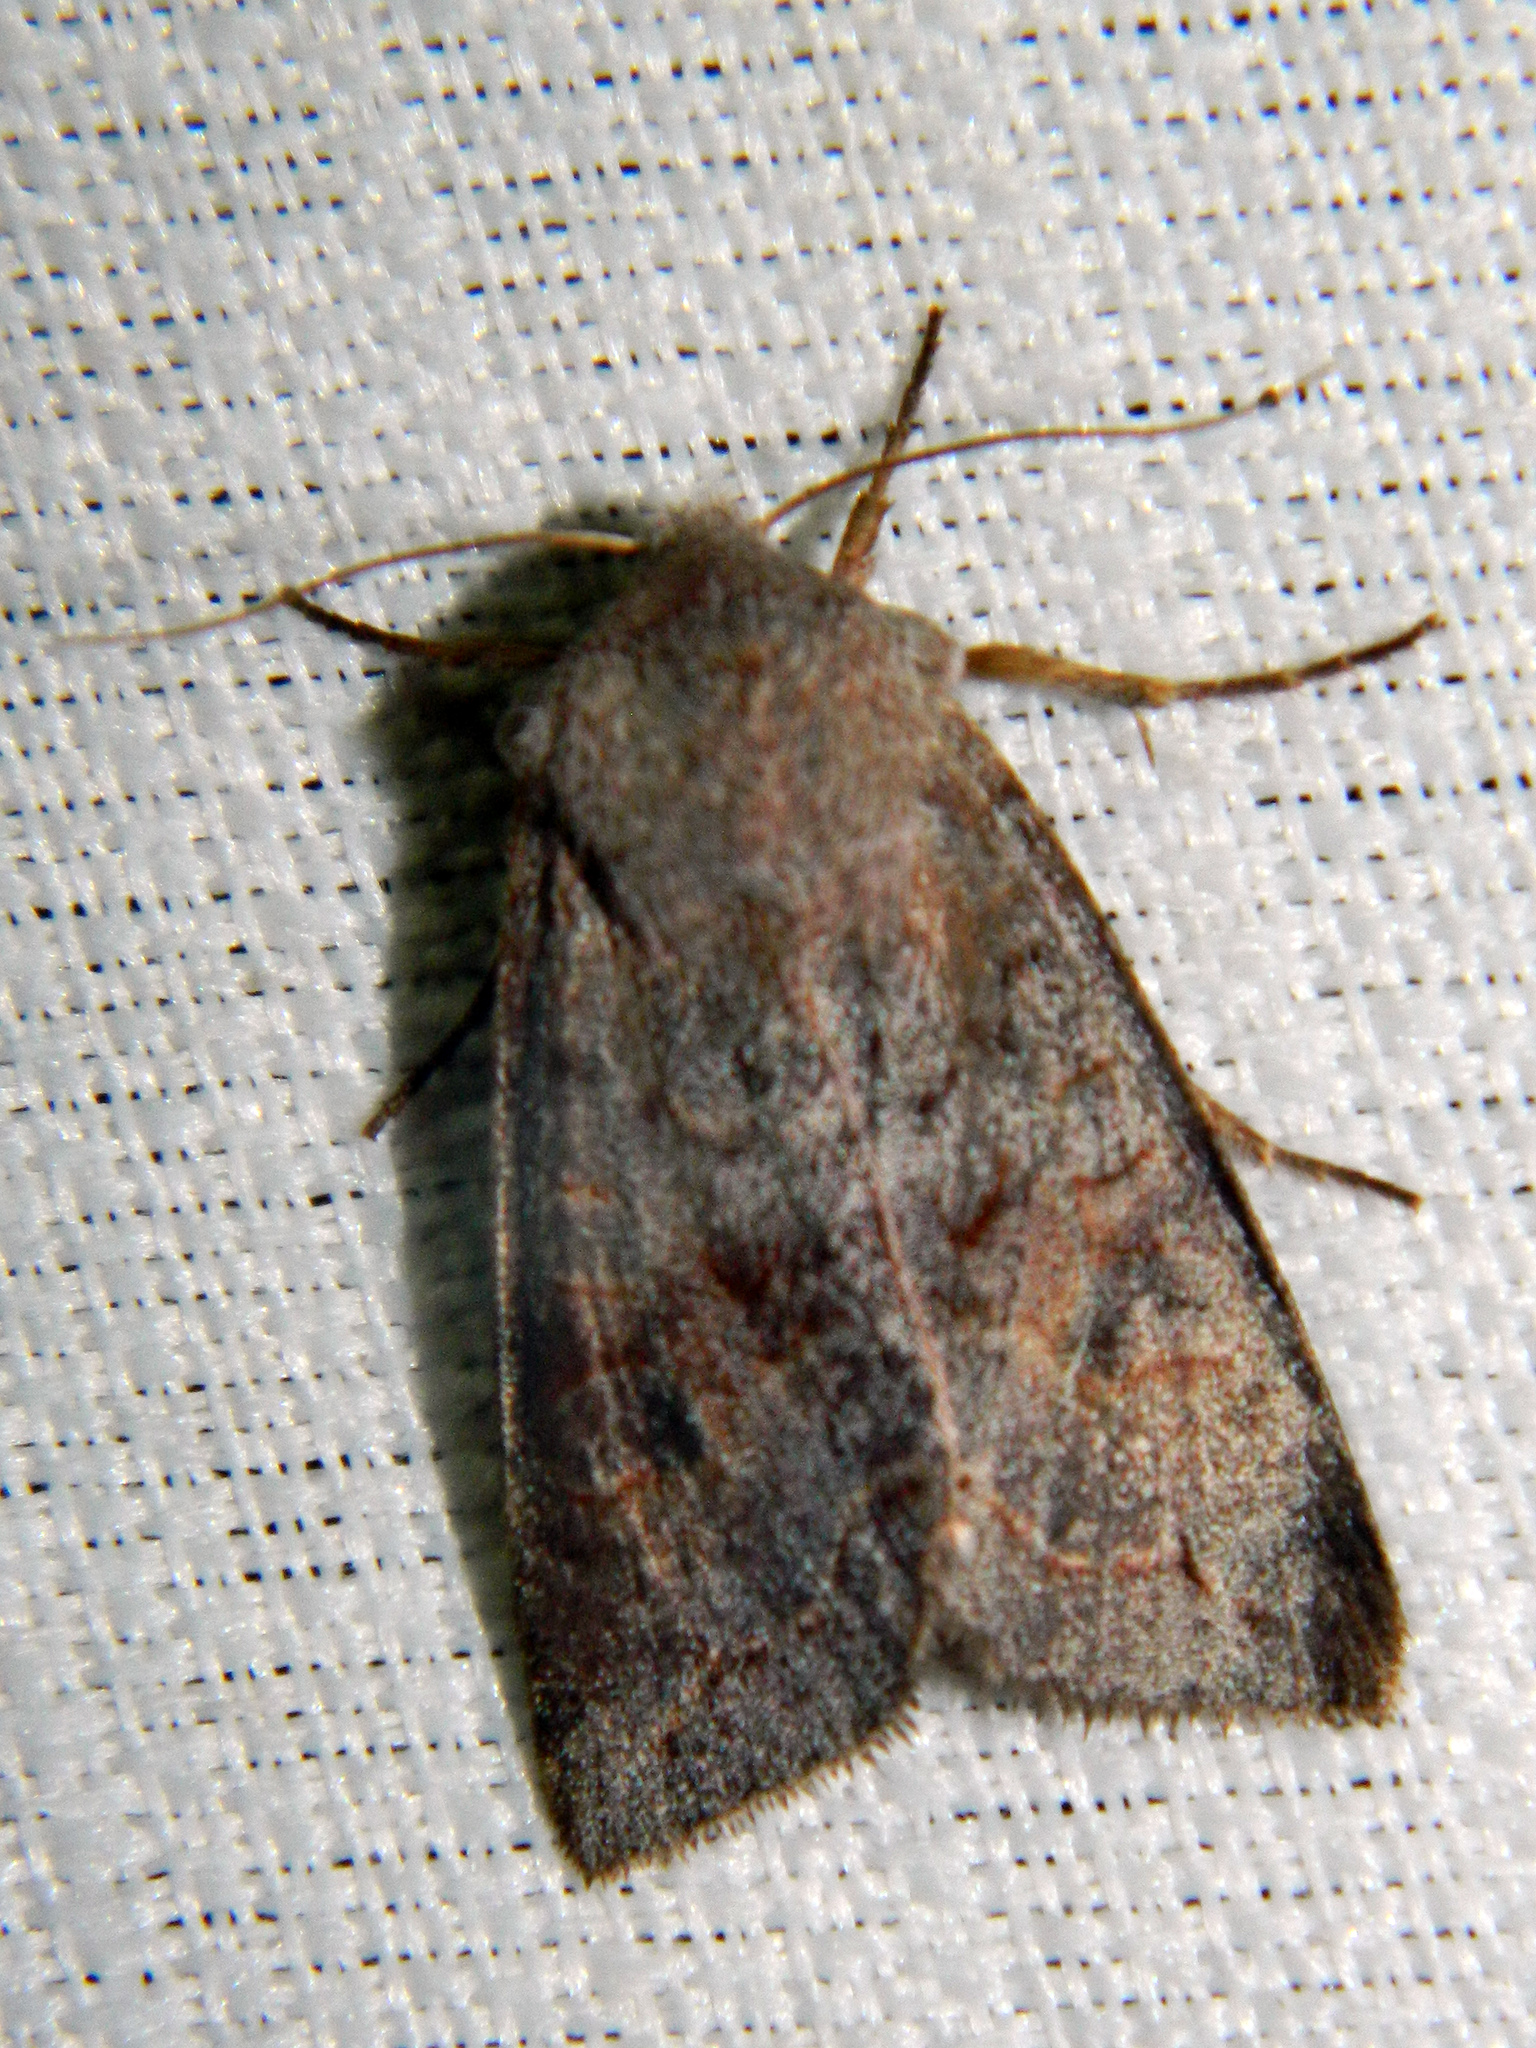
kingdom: Animalia
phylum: Arthropoda
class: Insecta
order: Lepidoptera
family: Noctuidae
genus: Orthosia
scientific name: Orthosia revicta
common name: Rusty whitesided caterpillar
